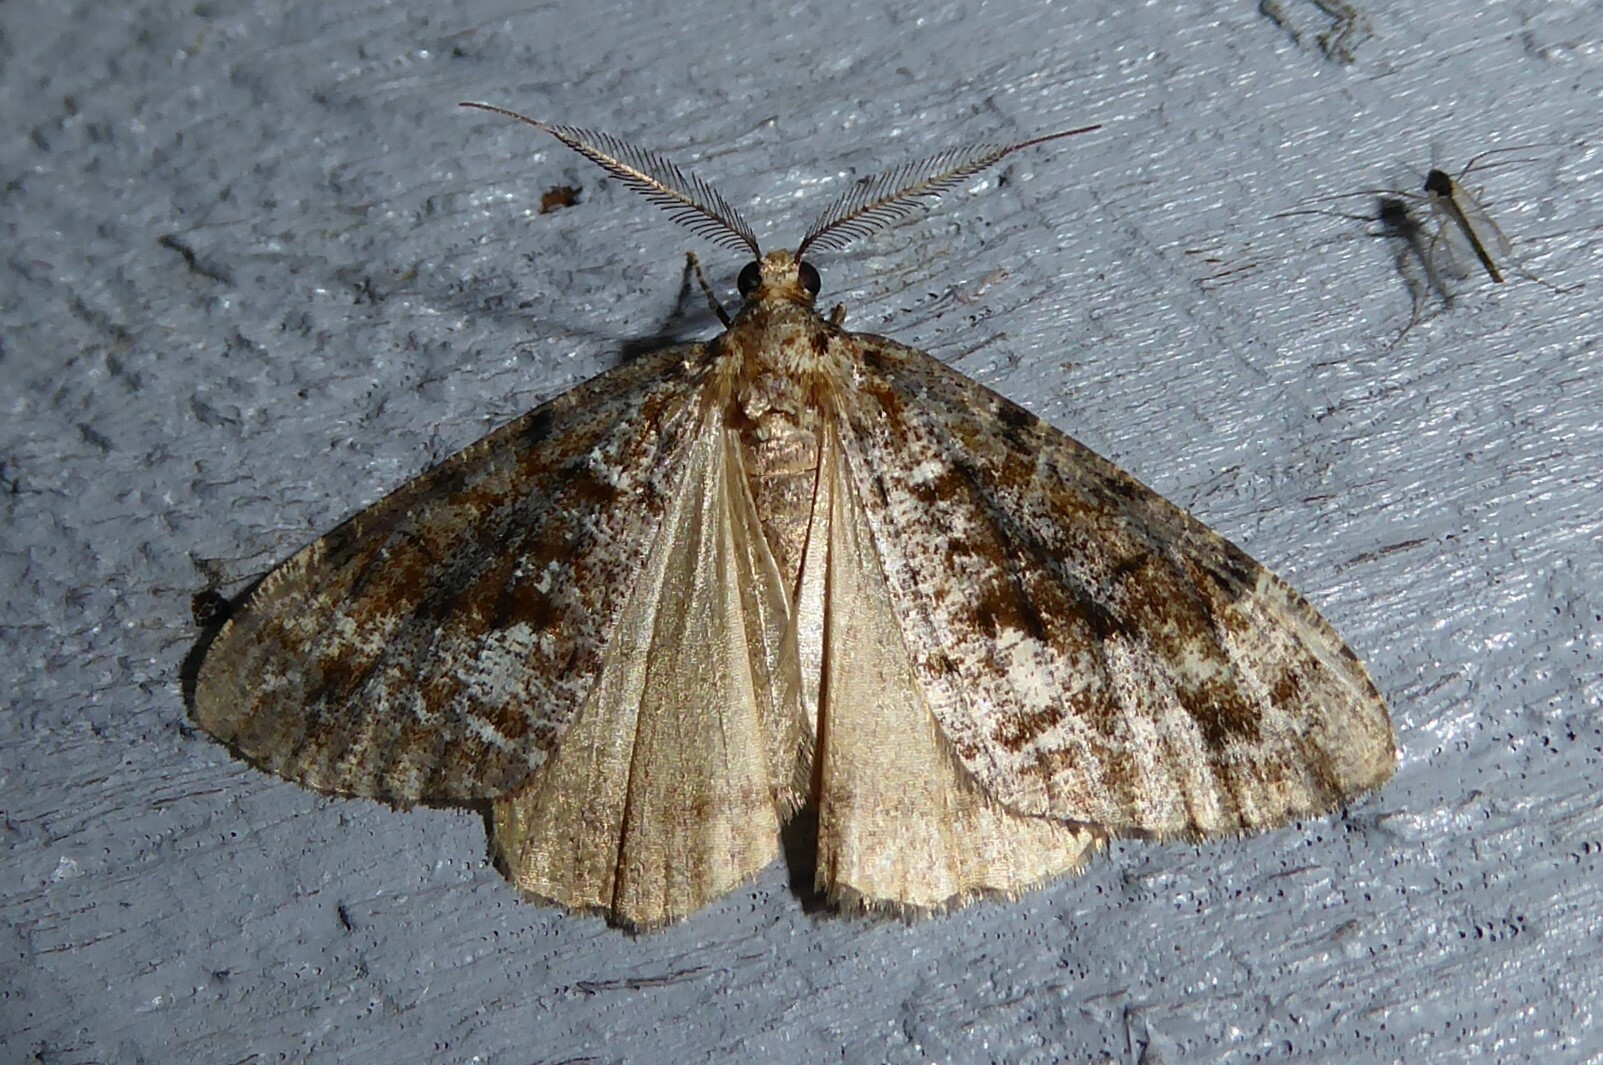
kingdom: Animalia
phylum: Arthropoda
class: Insecta
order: Lepidoptera
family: Geometridae
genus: Pseudocoremia
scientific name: Pseudocoremia leucelaea
